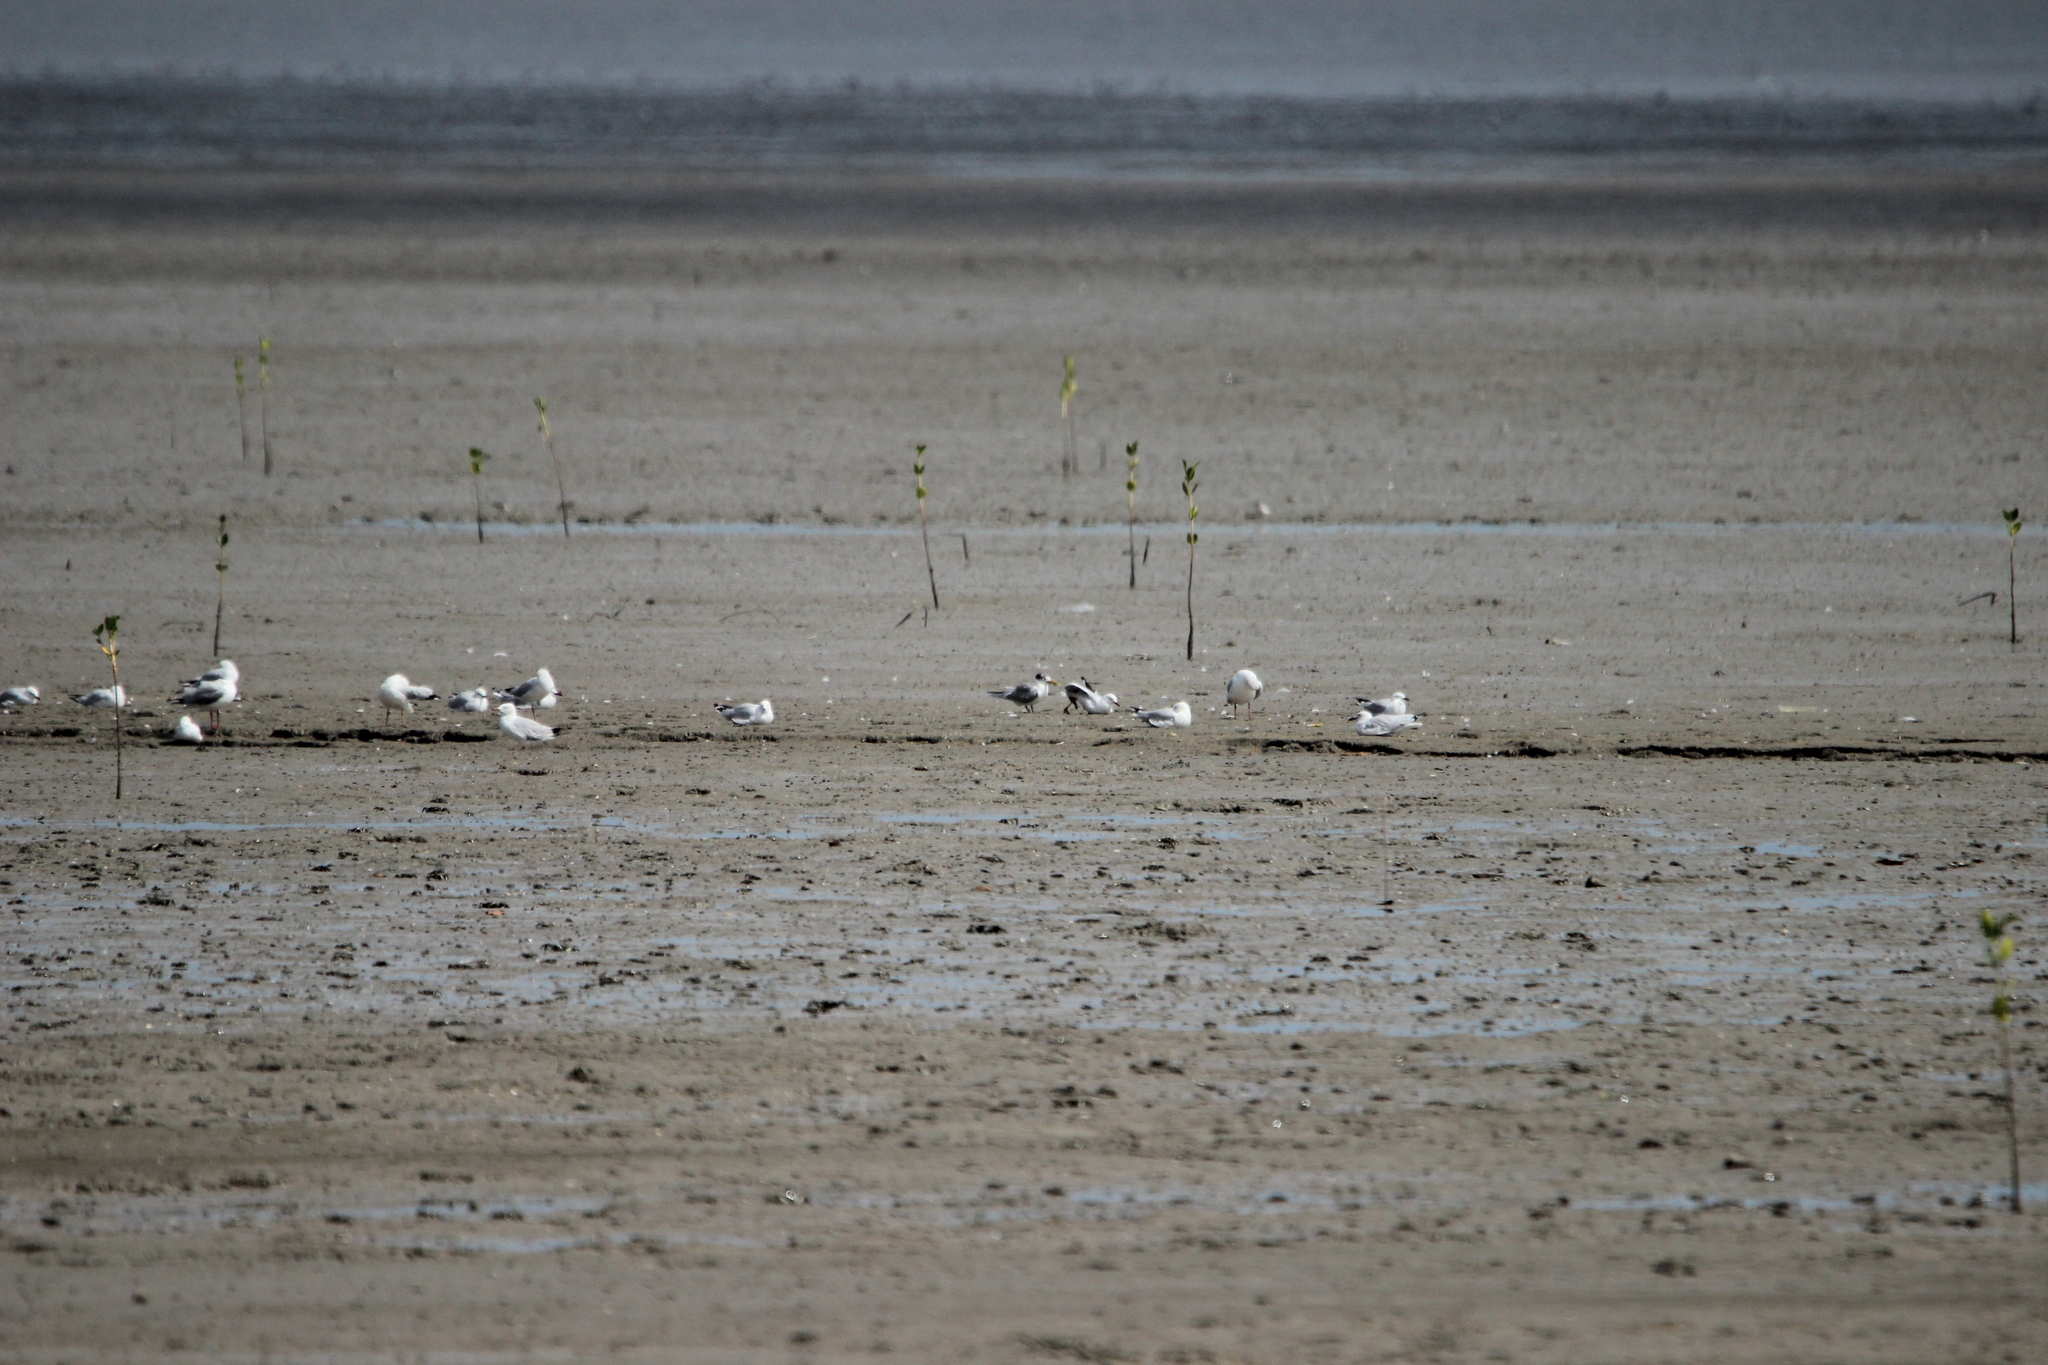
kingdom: Animalia
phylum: Chordata
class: Aves
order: Charadriiformes
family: Laridae
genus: Thalasseus
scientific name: Thalasseus bergii
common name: Greater crested tern
